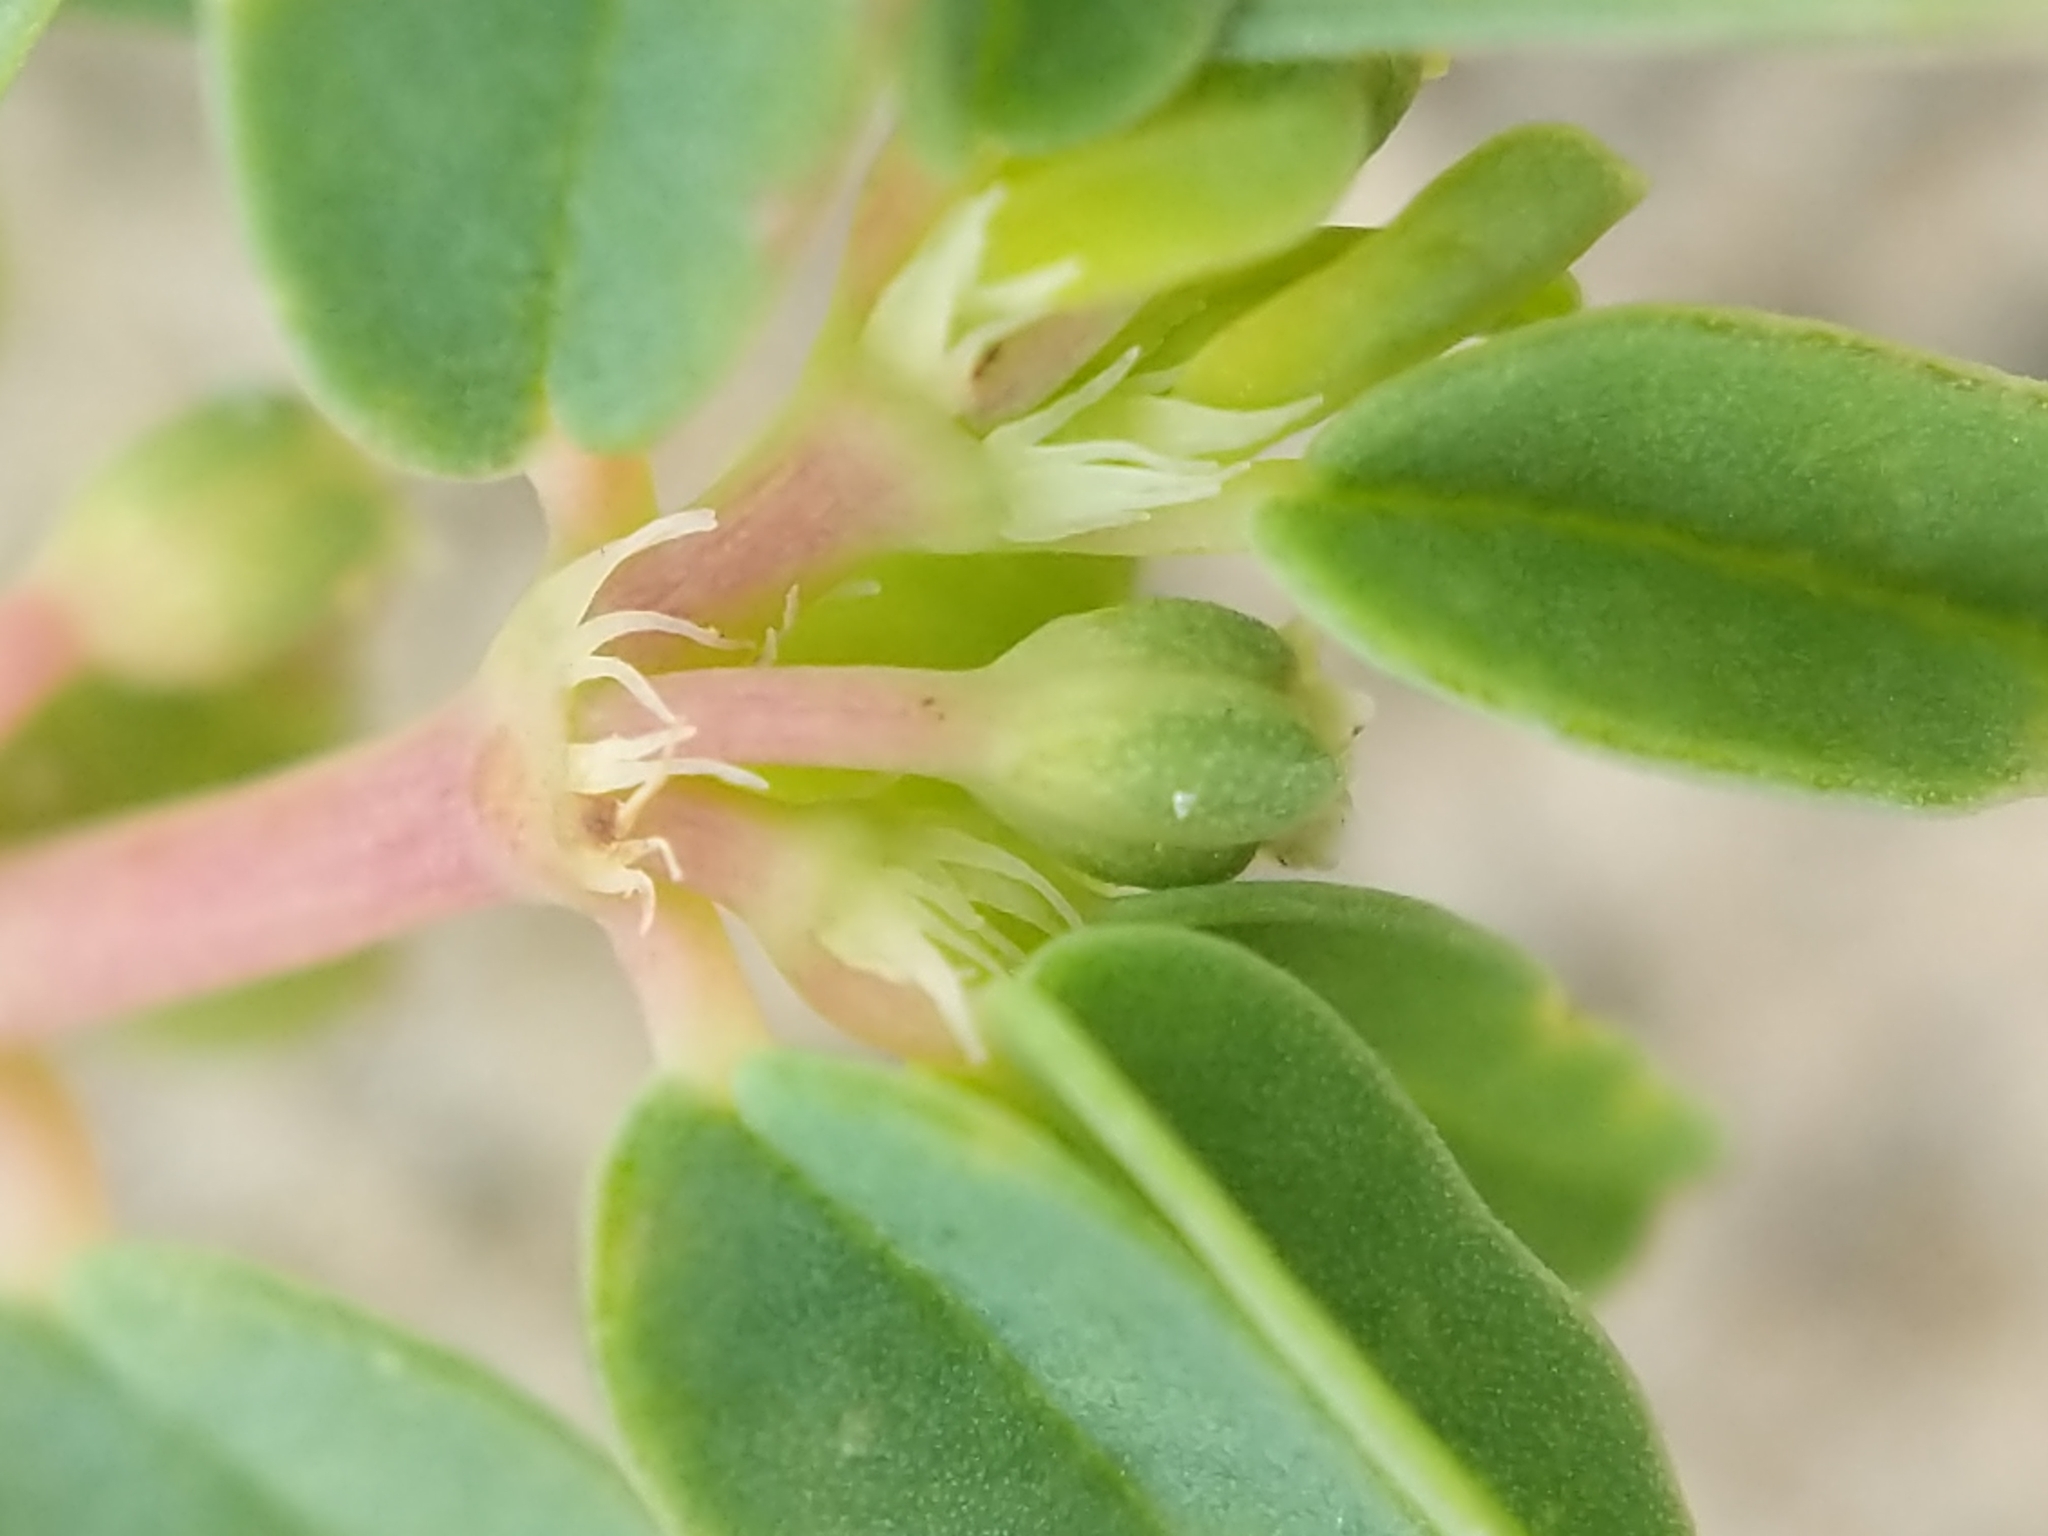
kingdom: Plantae
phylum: Tracheophyta
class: Magnoliopsida
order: Malpighiales
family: Euphorbiaceae
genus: Euphorbia
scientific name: Euphorbia bombensis
